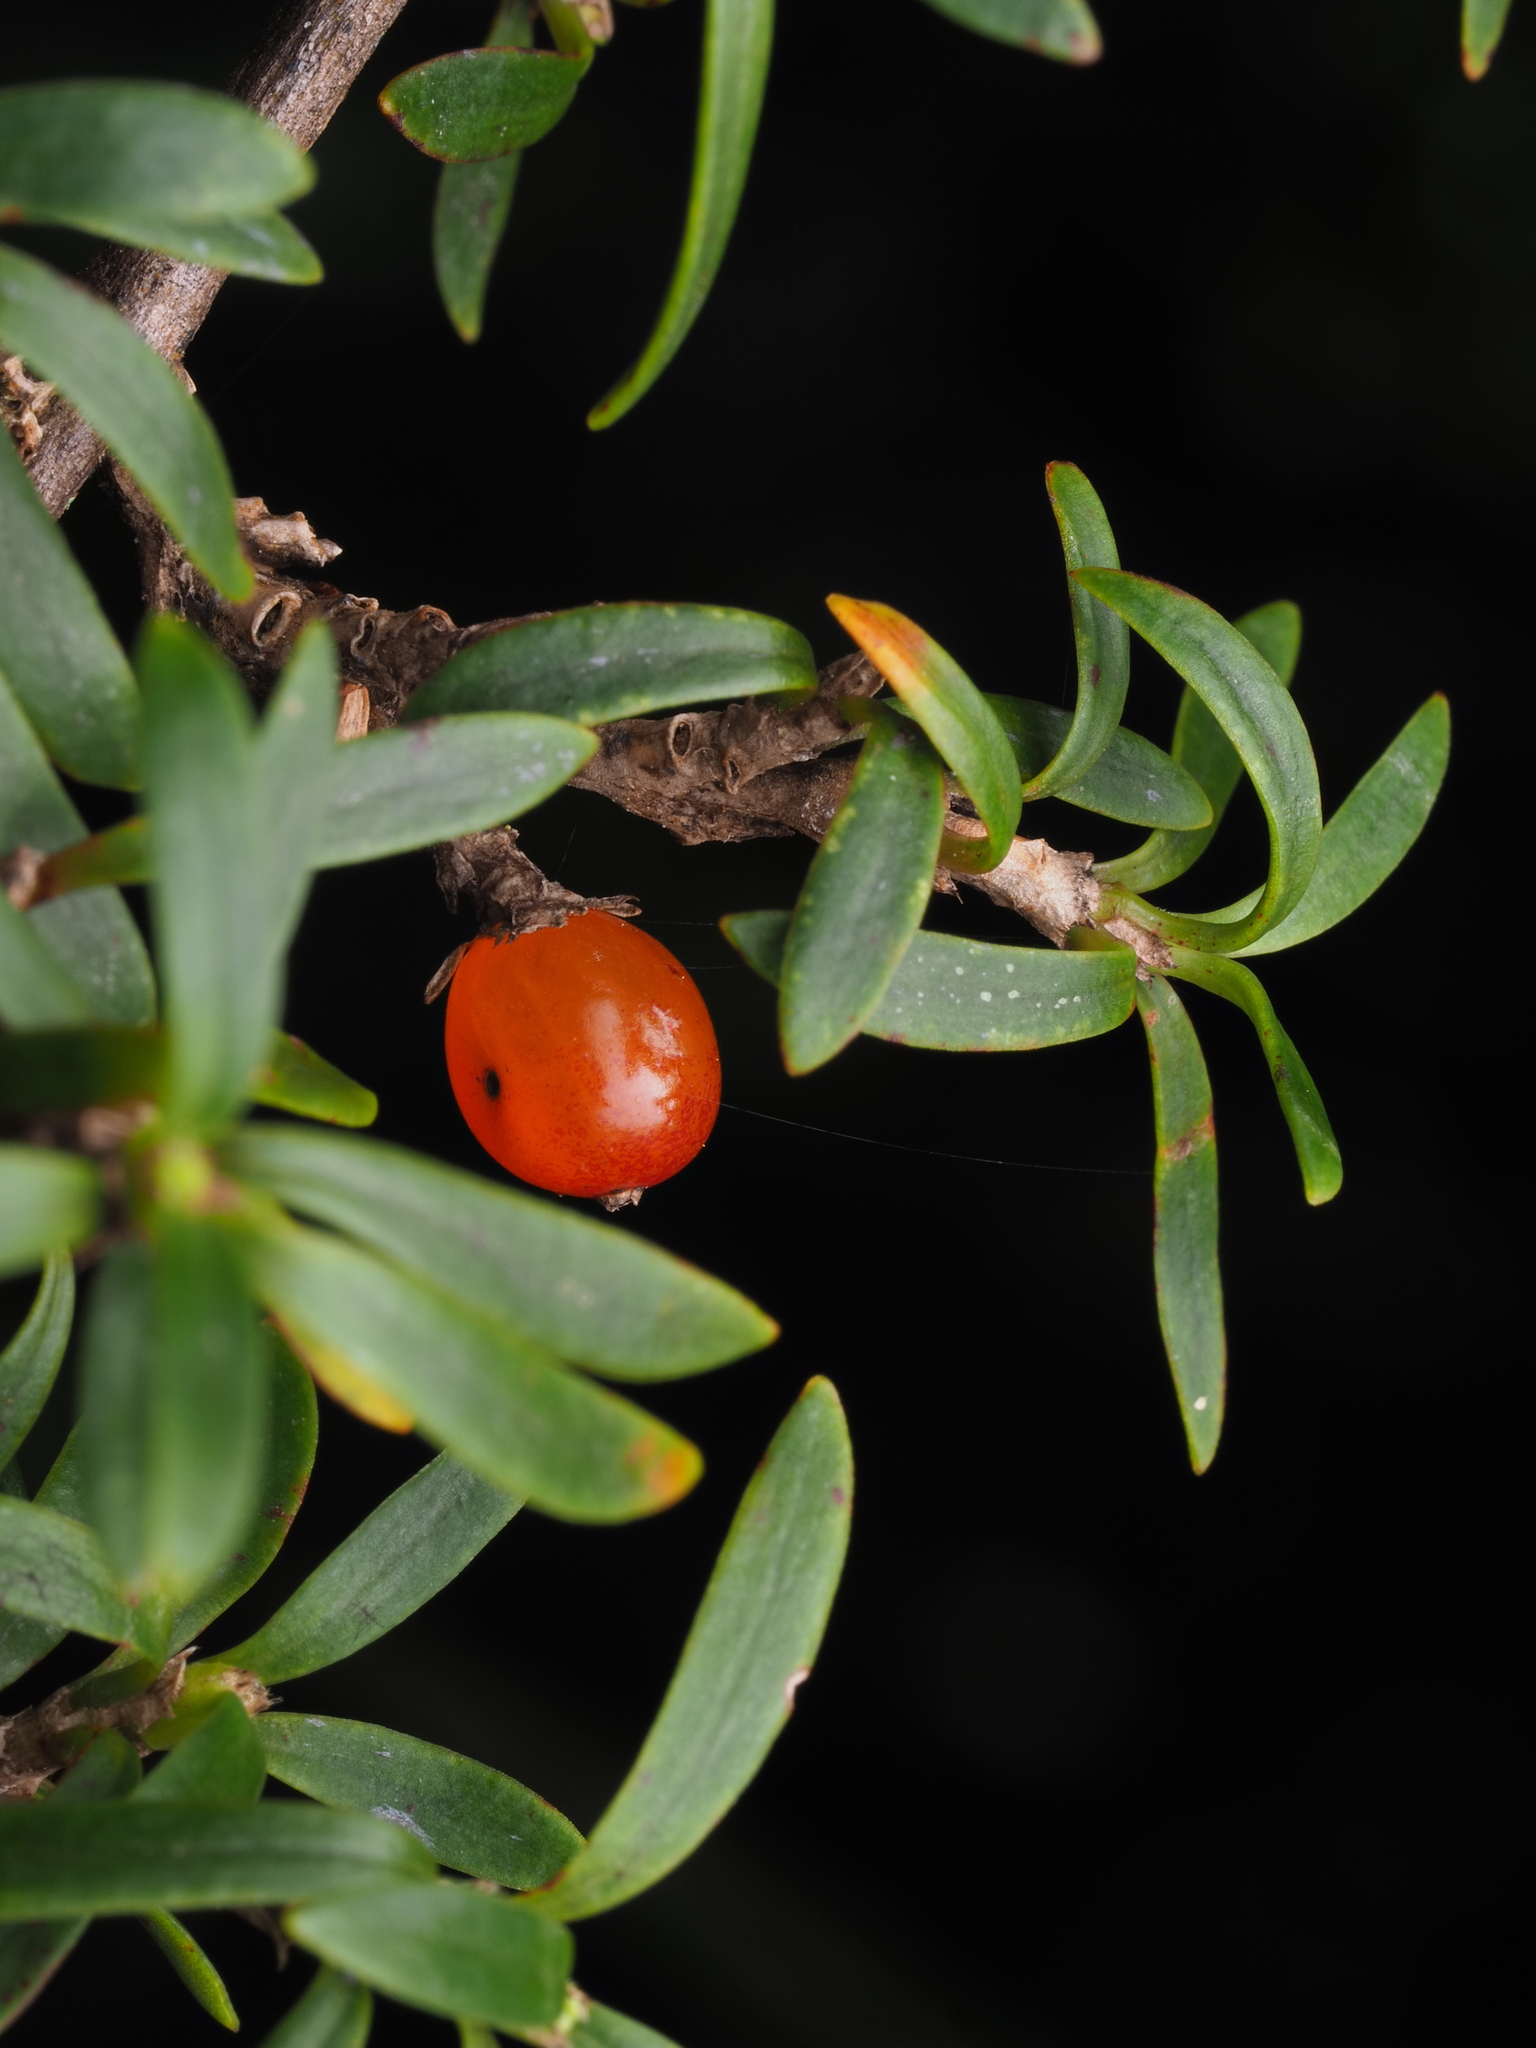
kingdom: Plantae
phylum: Tracheophyta
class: Magnoliopsida
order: Gentianales
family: Rubiaceae
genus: Coprosma
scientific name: Coprosma pseudocuneata
